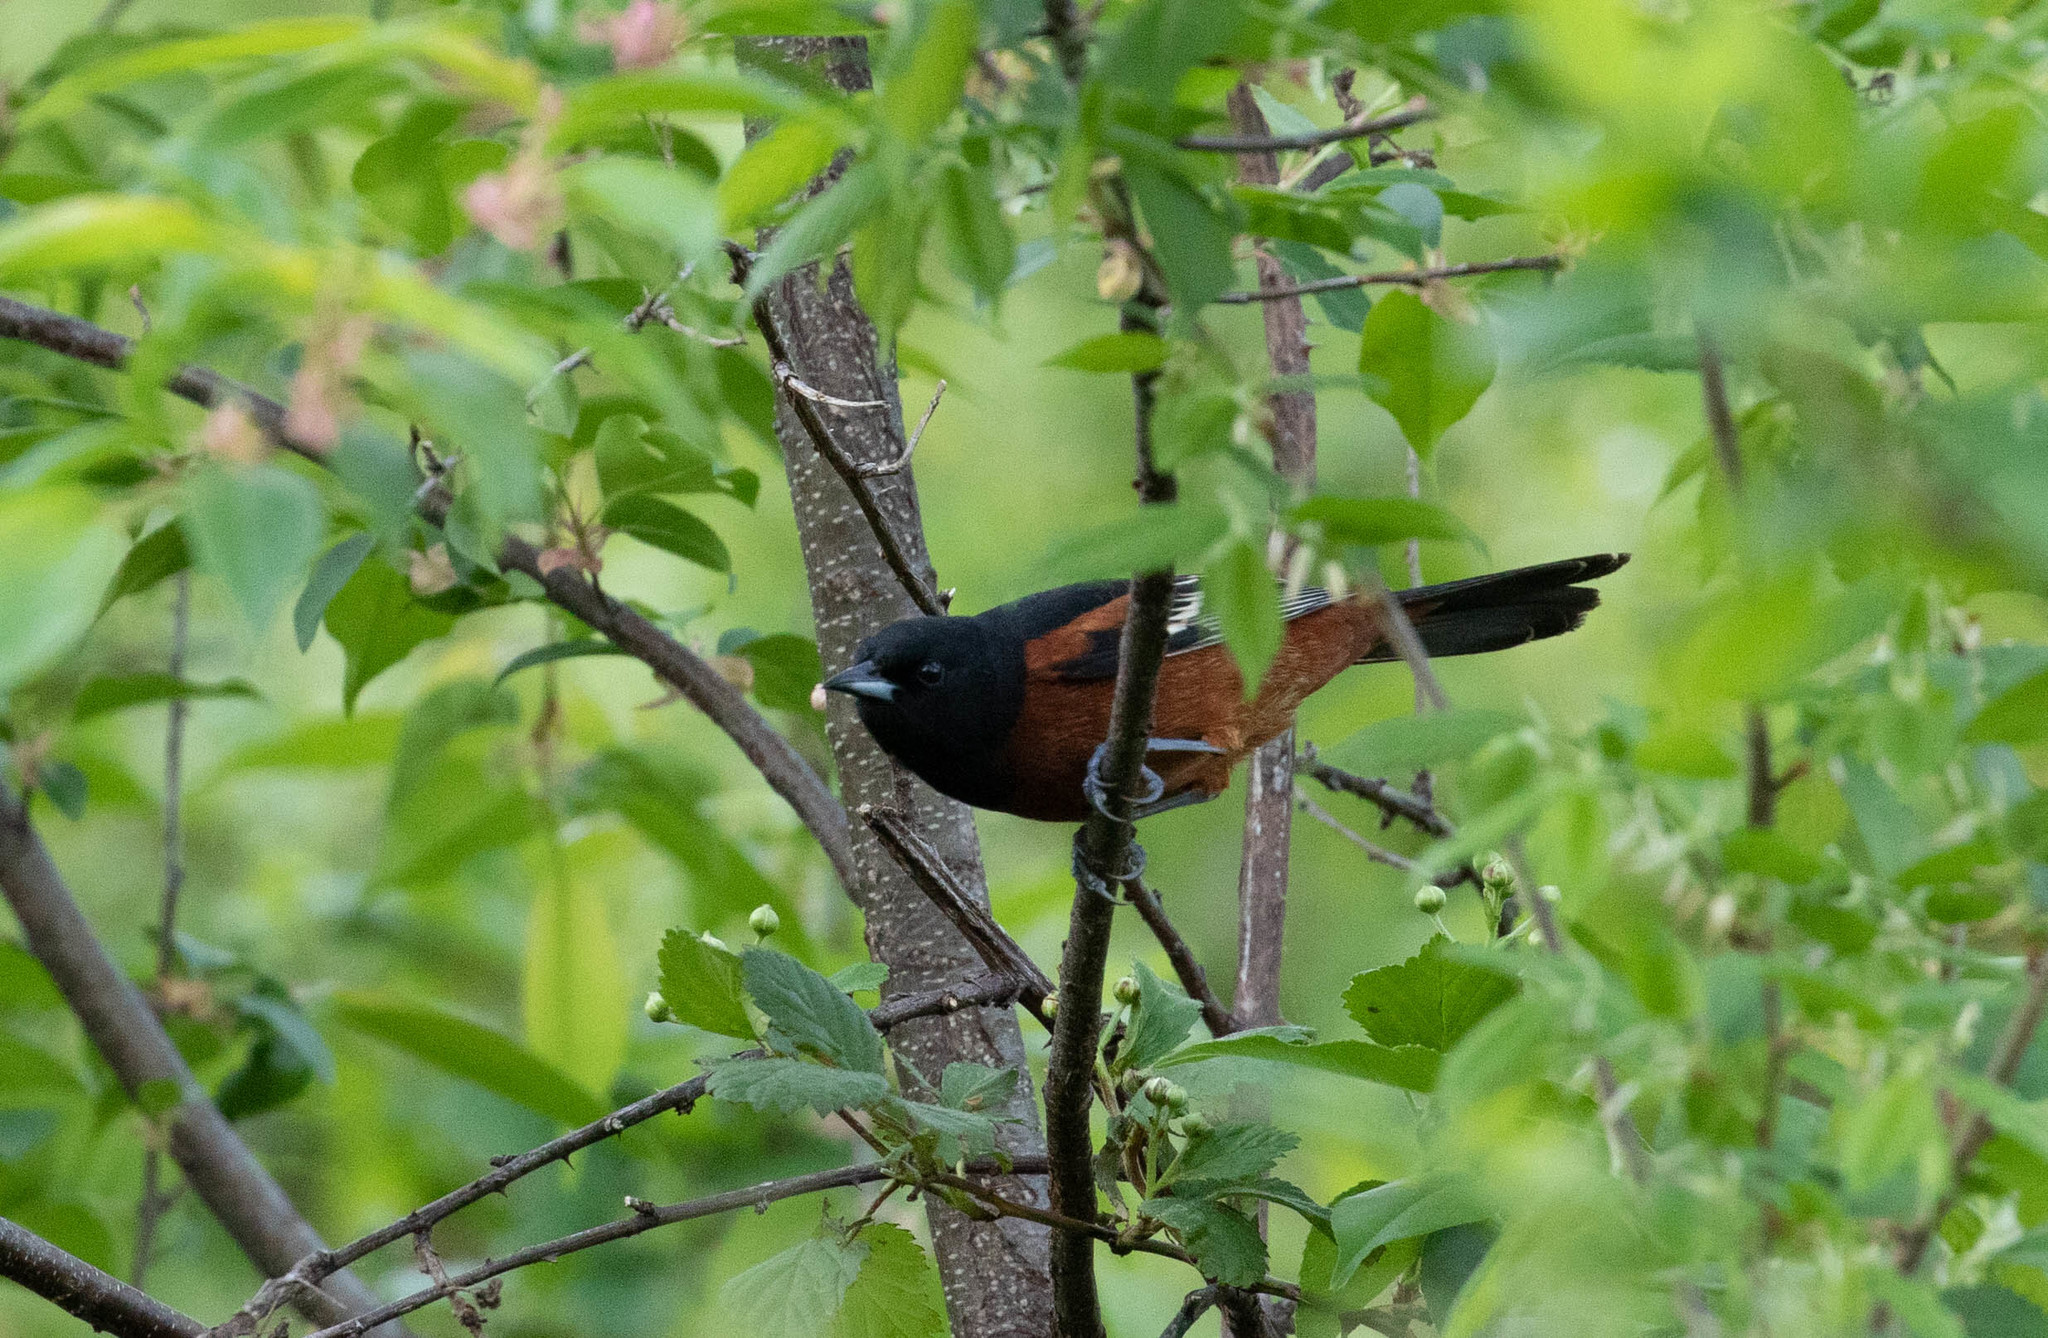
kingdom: Animalia
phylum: Chordata
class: Aves
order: Passeriformes
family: Icteridae
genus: Icterus
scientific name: Icterus spurius
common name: Orchard oriole
